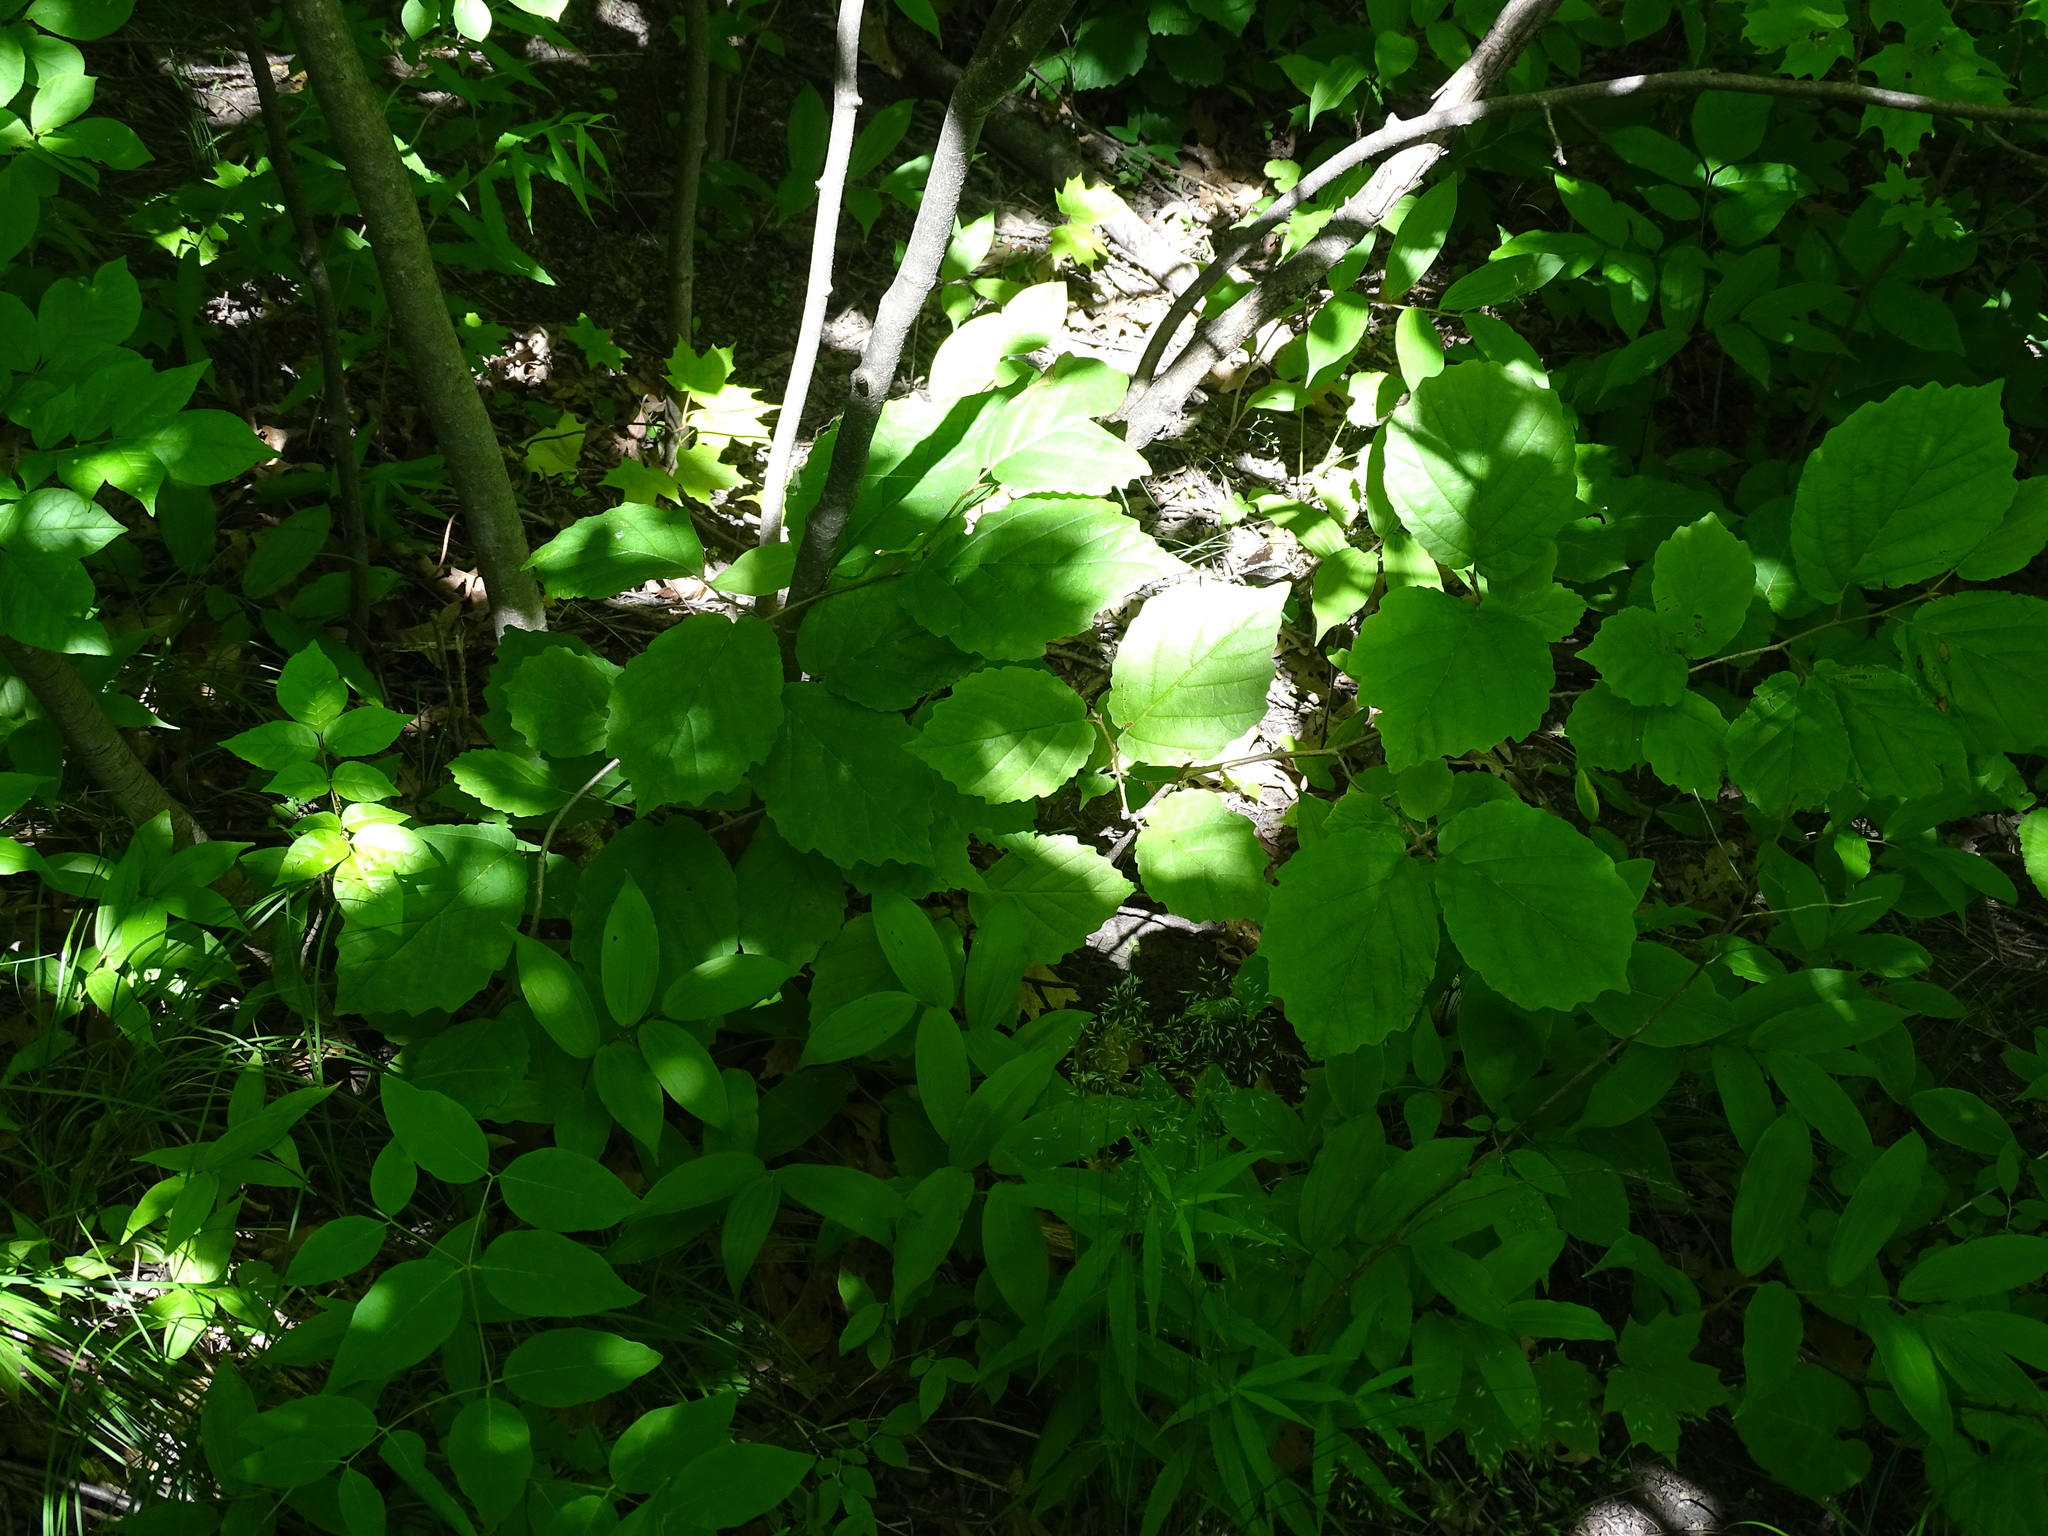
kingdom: Plantae
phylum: Tracheophyta
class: Magnoliopsida
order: Saxifragales
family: Hamamelidaceae
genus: Hamamelis
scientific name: Hamamelis virginiana
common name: Witch-hazel
